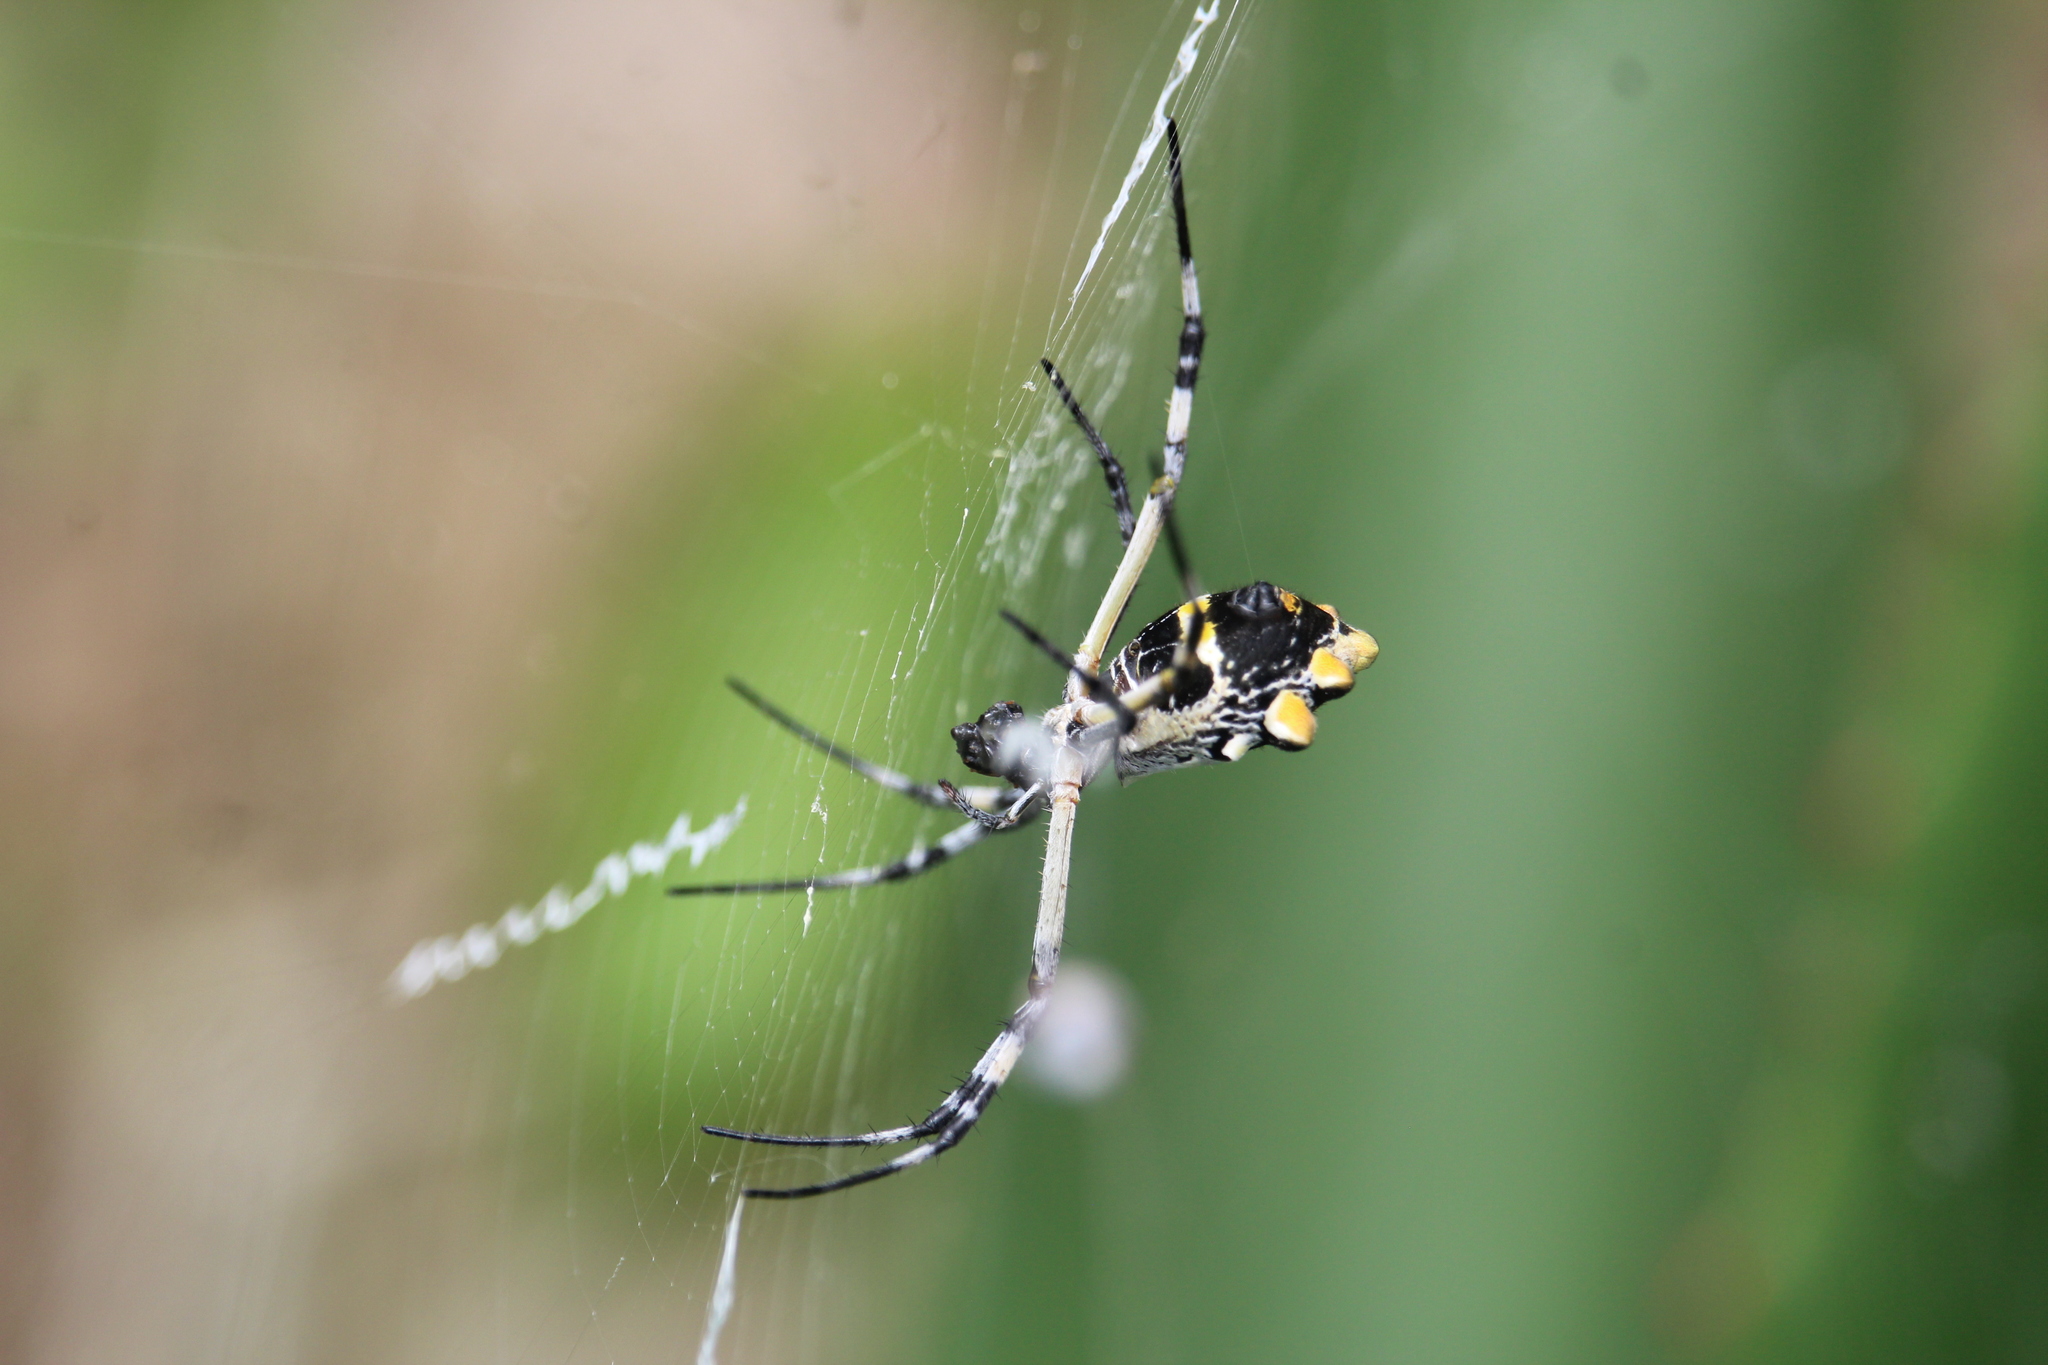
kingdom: Animalia
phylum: Arthropoda
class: Arachnida
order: Araneae
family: Araneidae
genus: Argiope
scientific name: Argiope argentata
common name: Orb weavers
